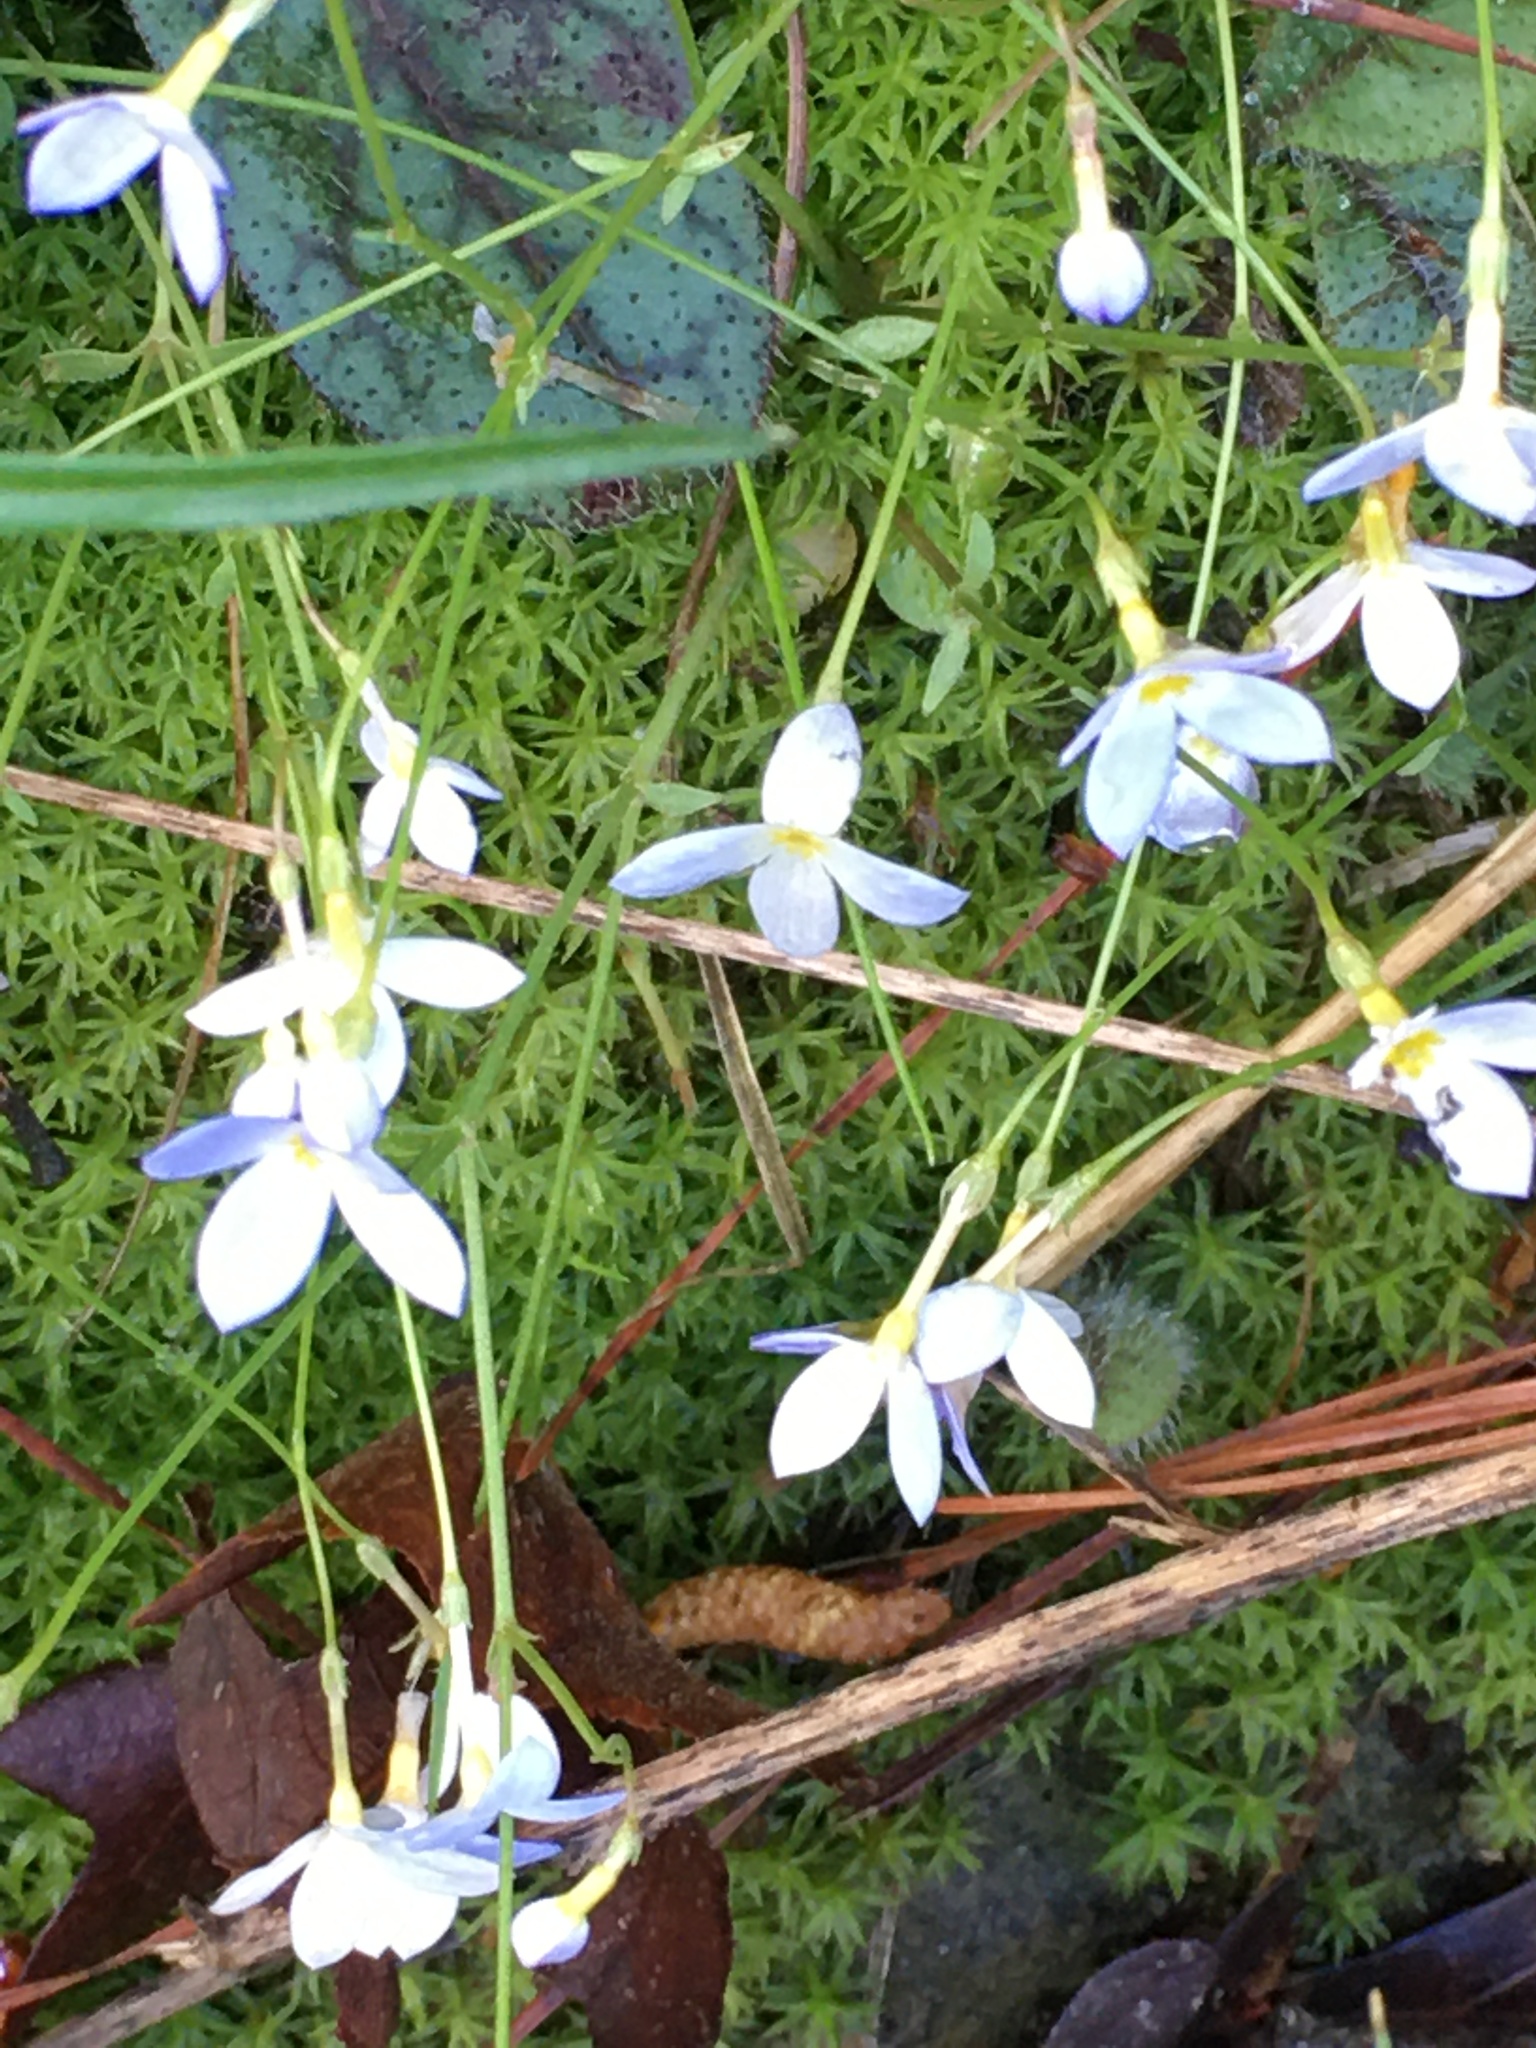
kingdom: Plantae
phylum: Tracheophyta
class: Magnoliopsida
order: Gentianales
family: Rubiaceae
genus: Houstonia
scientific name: Houstonia caerulea
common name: Bluets
